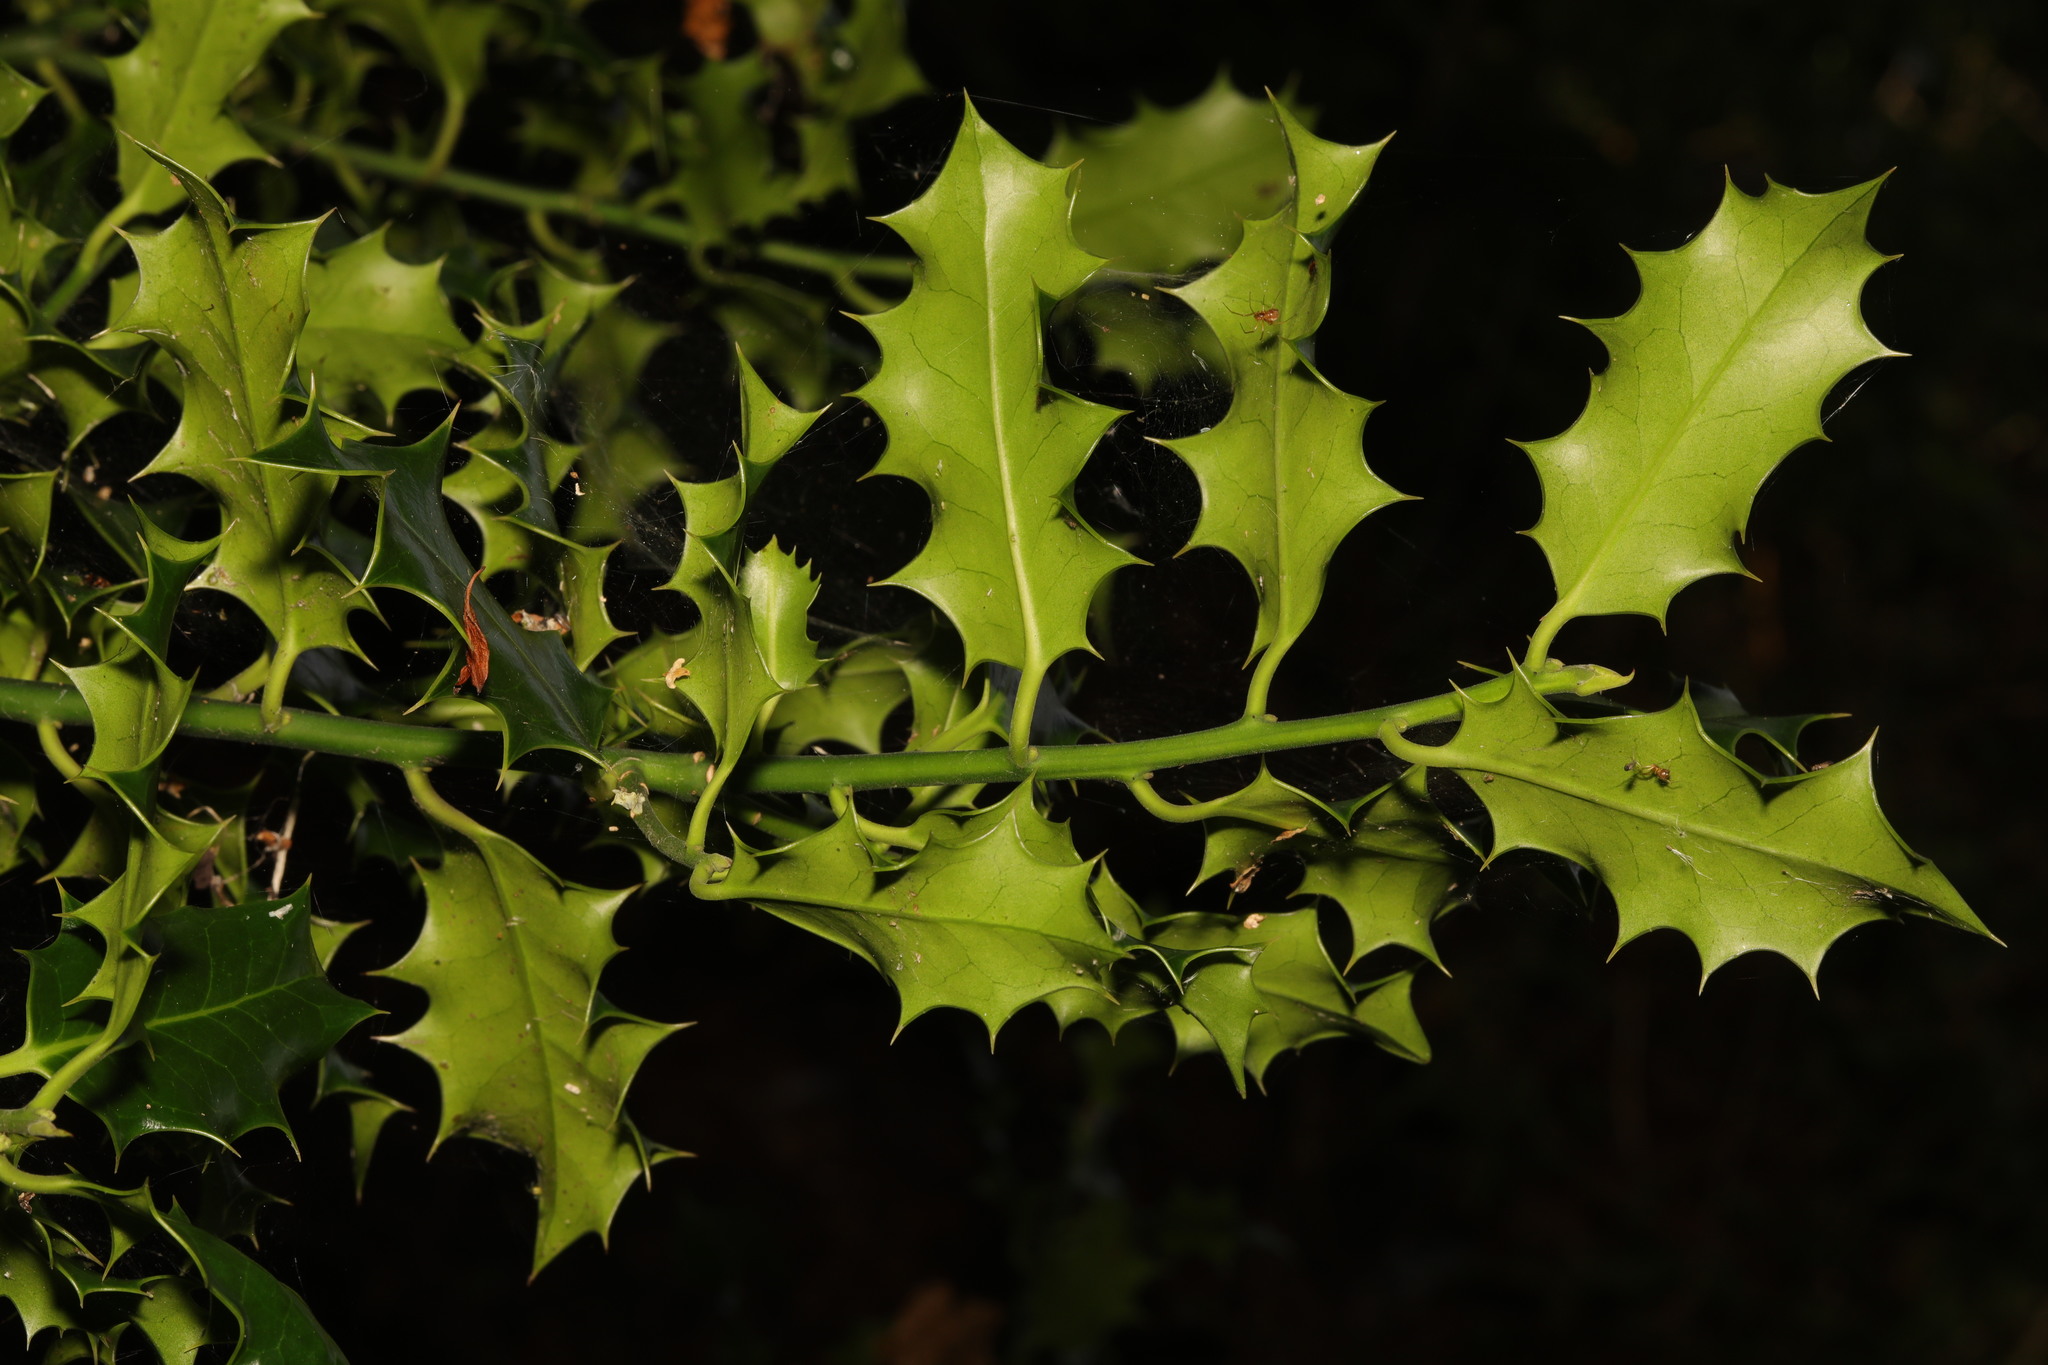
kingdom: Plantae
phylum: Tracheophyta
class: Magnoliopsida
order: Aquifoliales
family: Aquifoliaceae
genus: Ilex
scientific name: Ilex aquifolium
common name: English holly
